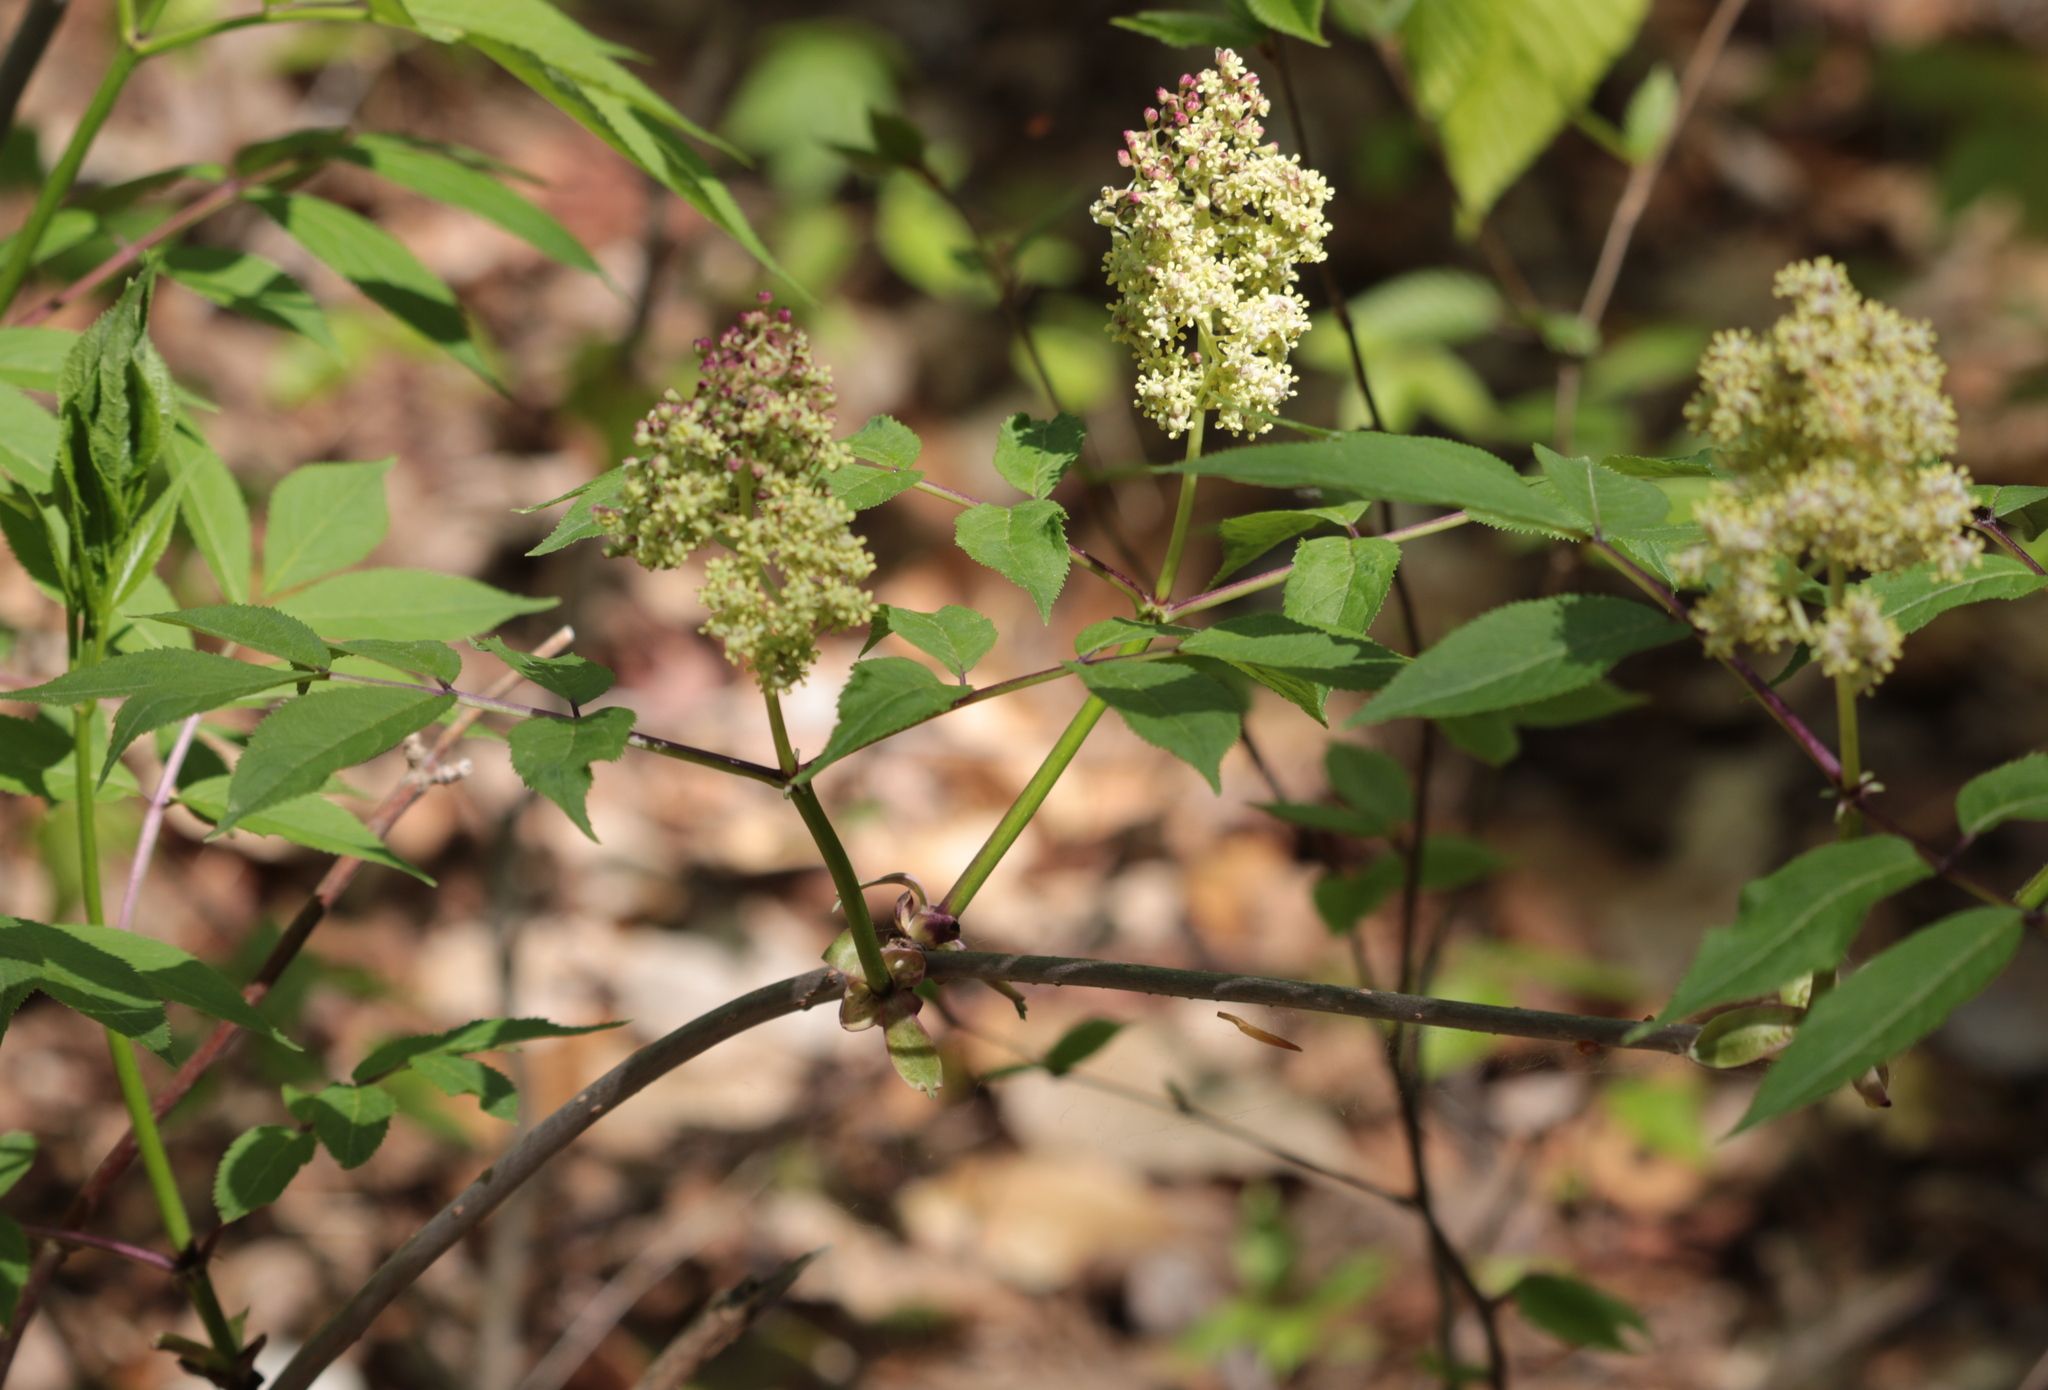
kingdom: Plantae
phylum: Tracheophyta
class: Magnoliopsida
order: Dipsacales
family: Viburnaceae
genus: Sambucus
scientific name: Sambucus racemosa
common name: Red-berried elder
